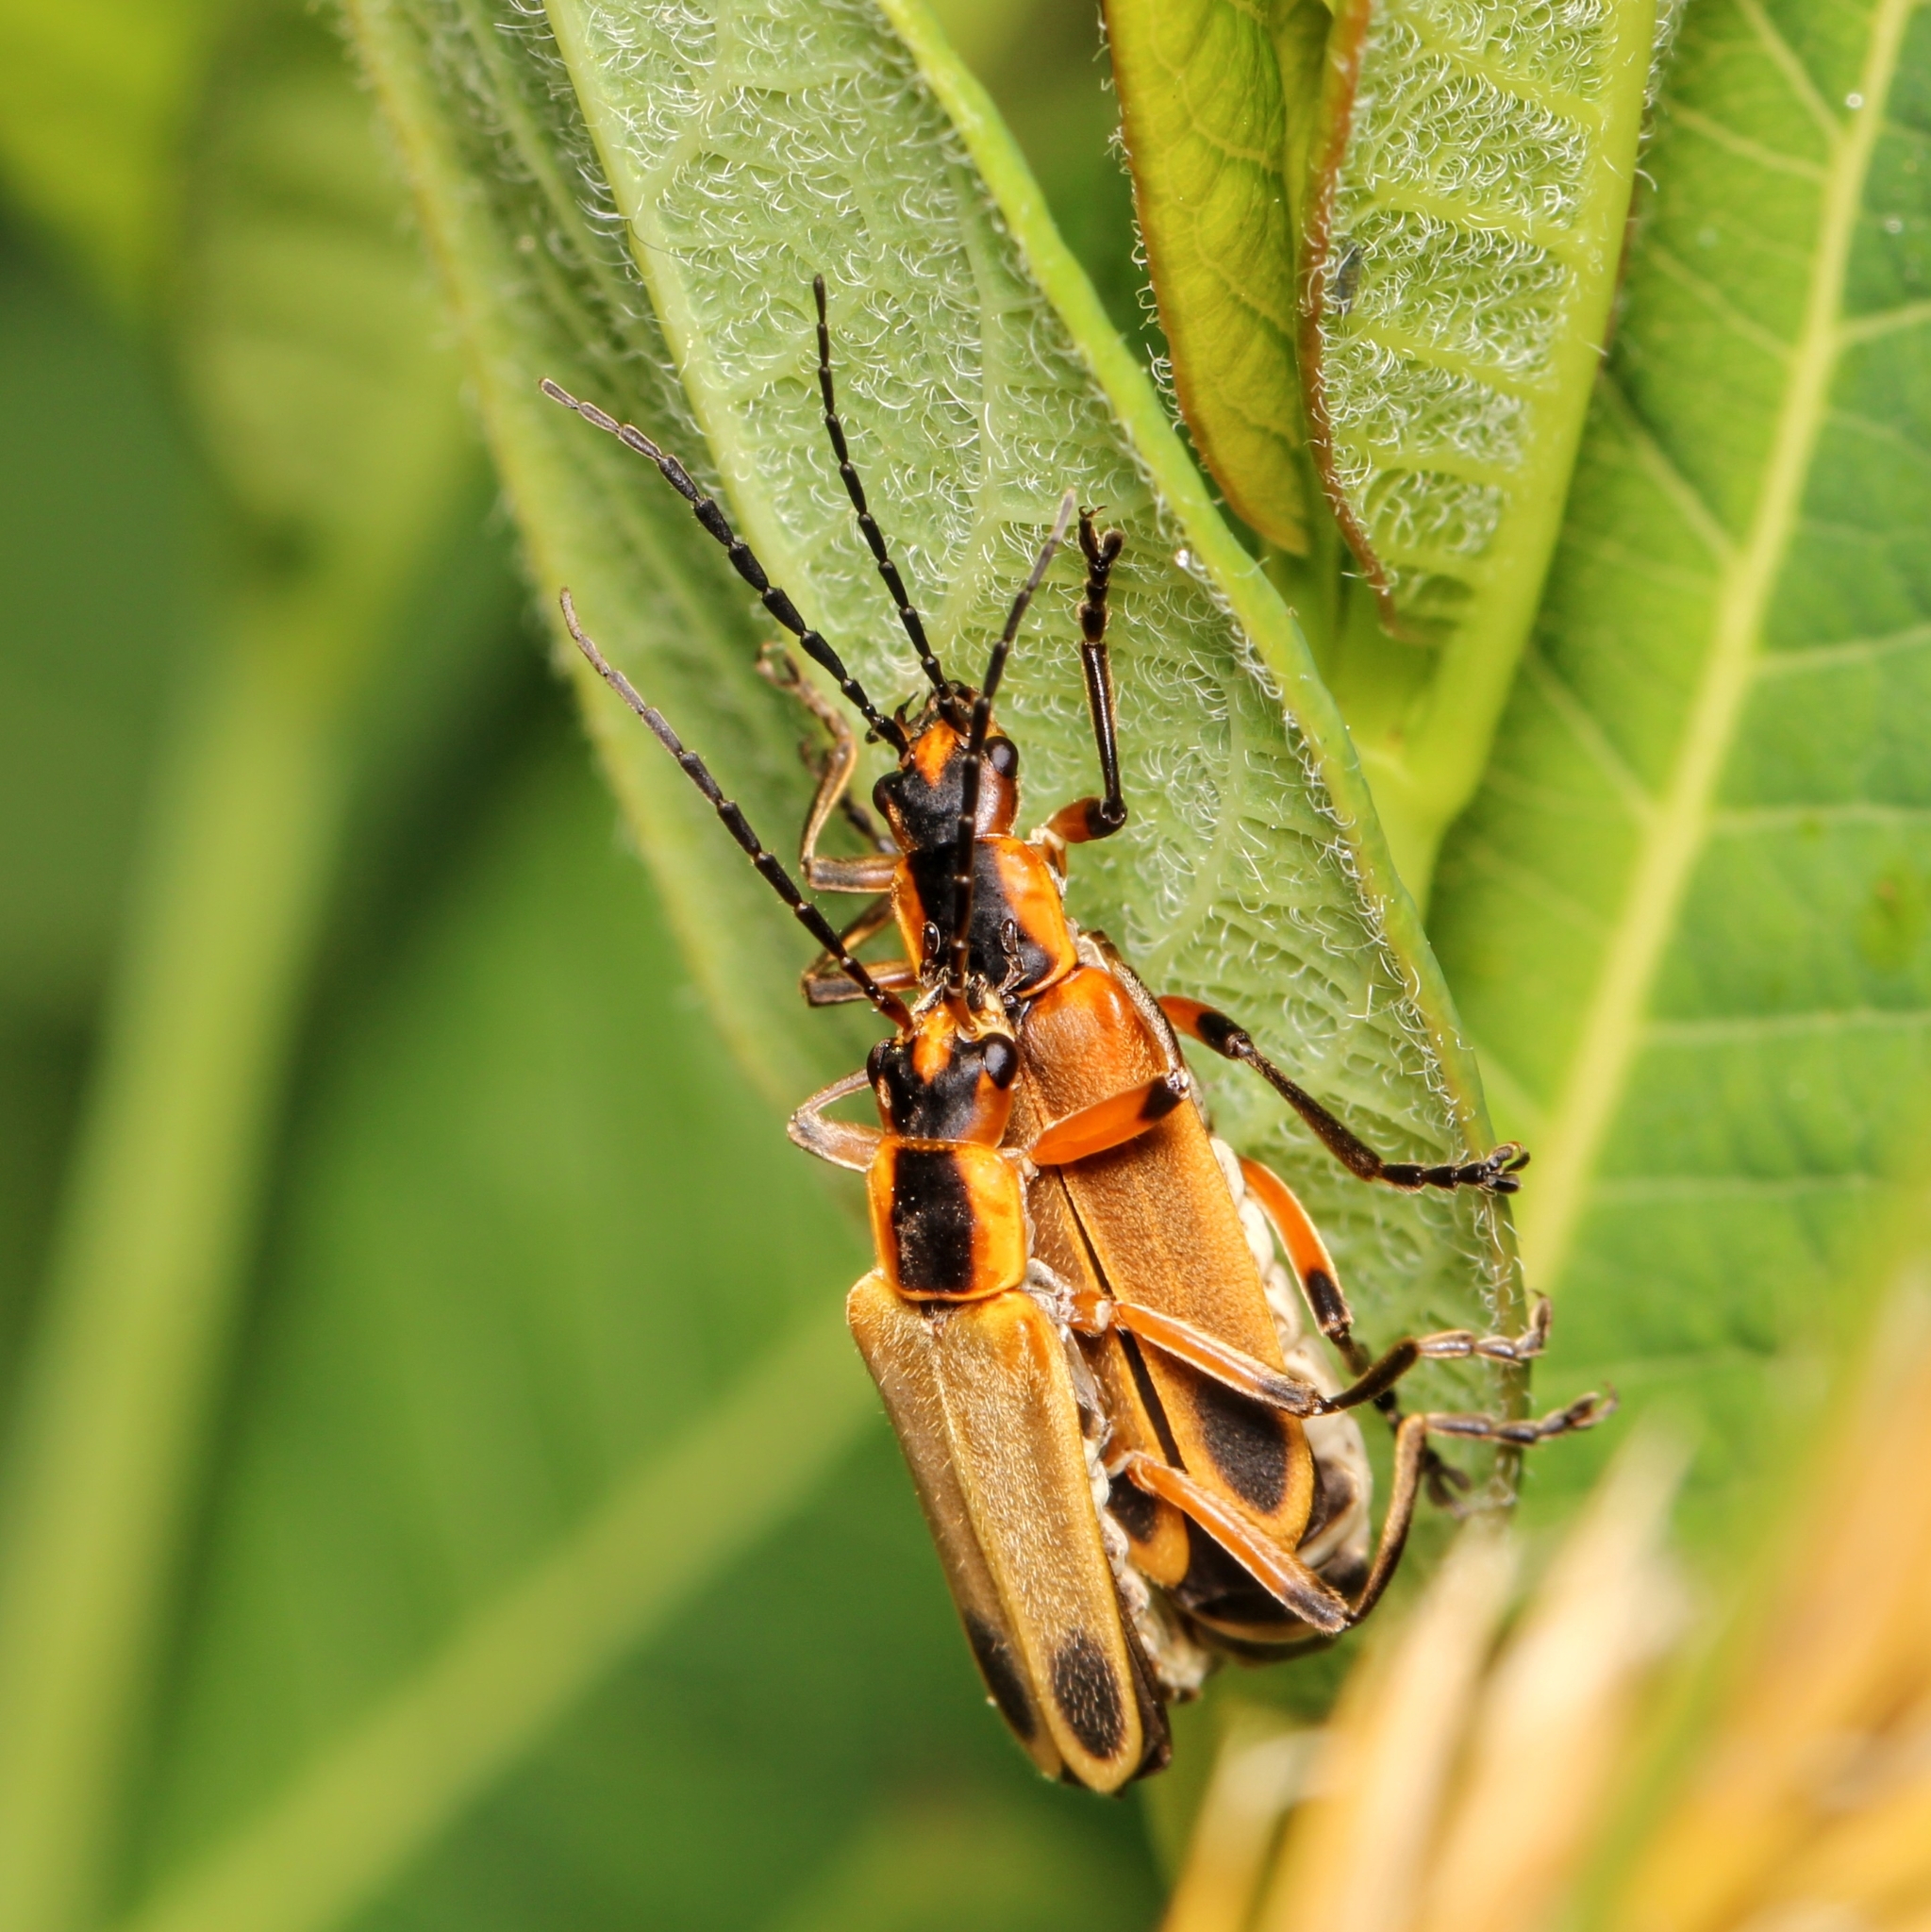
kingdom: Animalia
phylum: Arthropoda
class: Insecta
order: Coleoptera
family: Cantharidae
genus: Chauliognathus
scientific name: Chauliognathus marginatus
